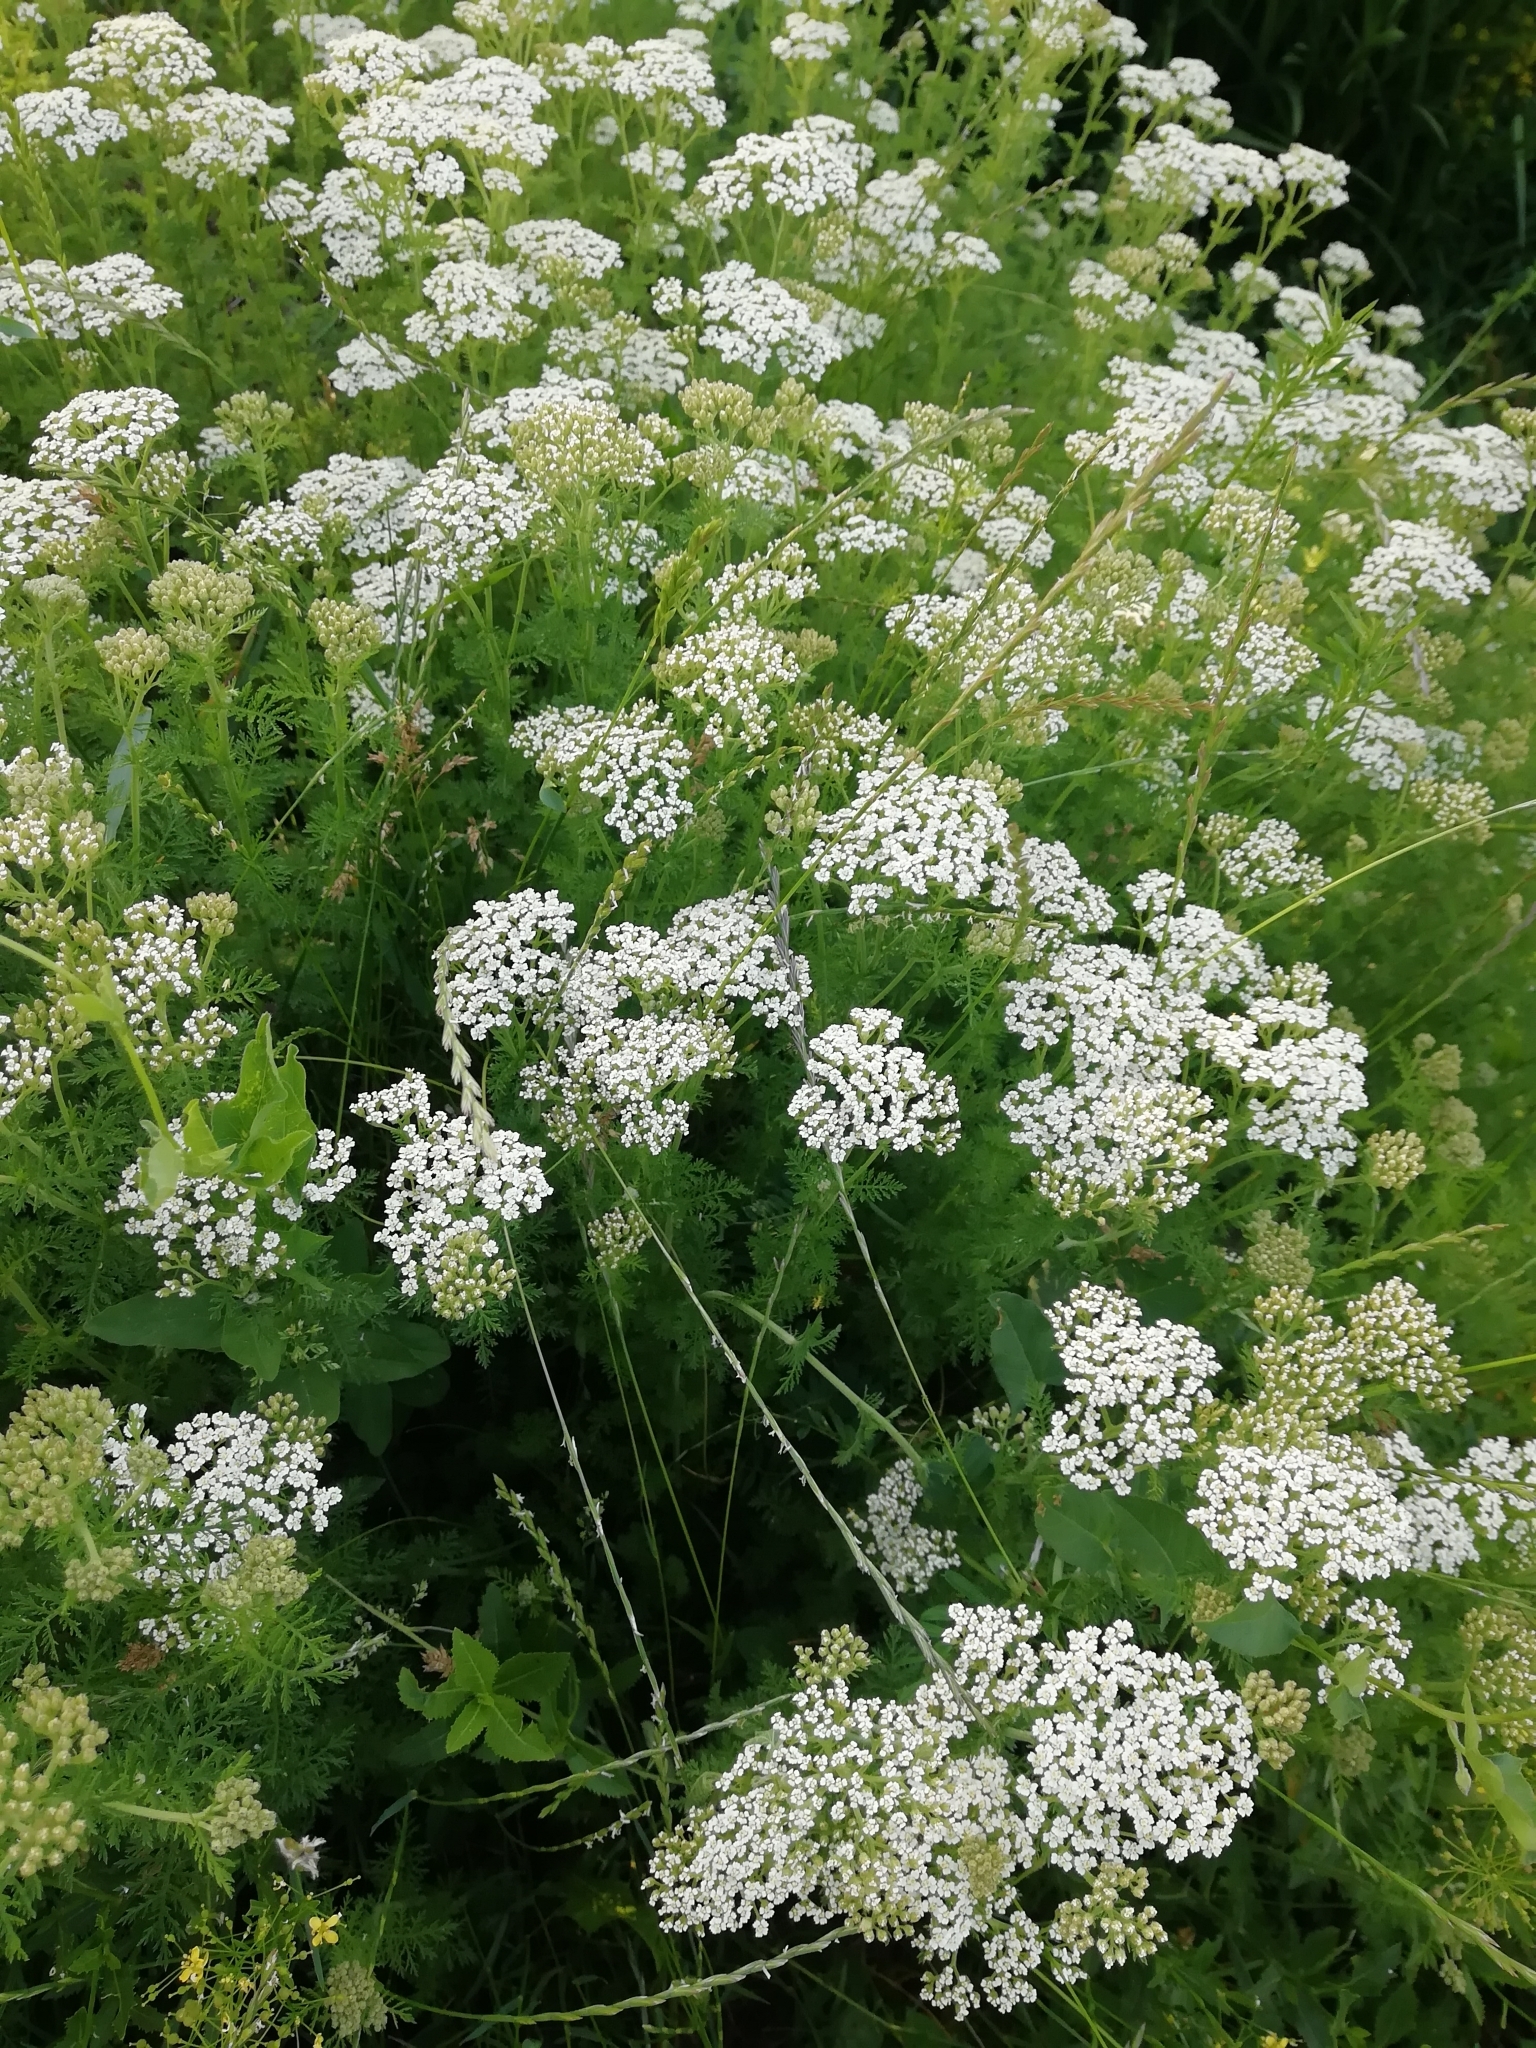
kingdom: Plantae
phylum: Tracheophyta
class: Magnoliopsida
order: Asterales
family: Asteraceae
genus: Achillea
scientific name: Achillea nobilis
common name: Noble yarrow
